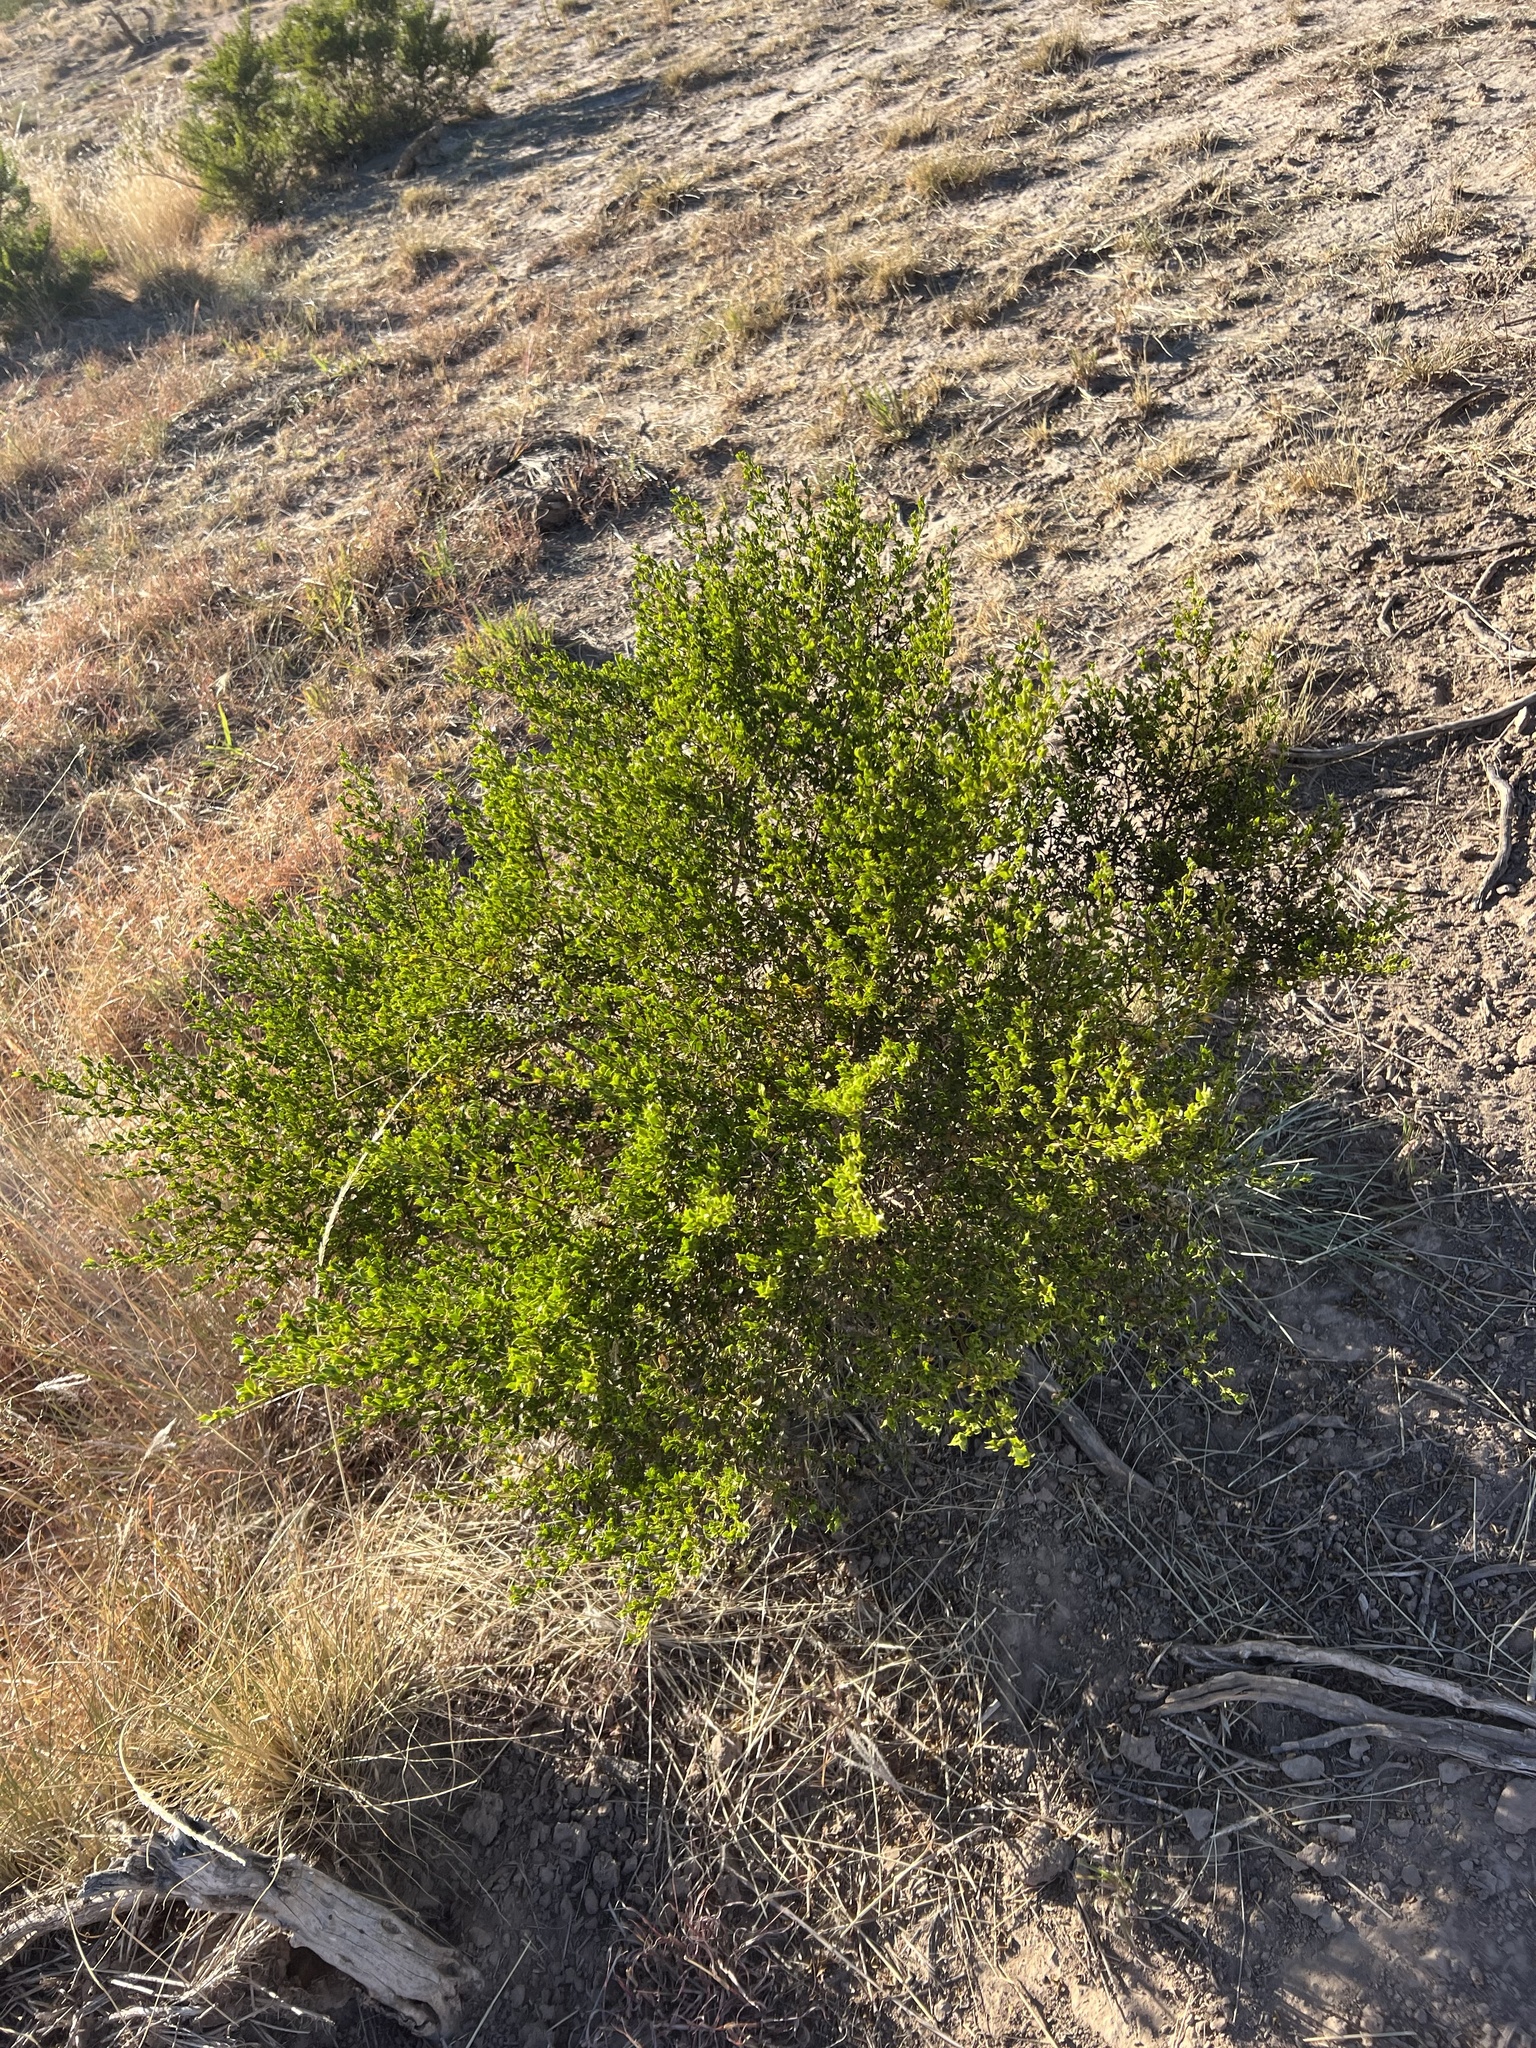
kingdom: Plantae
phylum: Tracheophyta
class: Magnoliopsida
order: Zygophyllales
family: Zygophyllaceae
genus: Larrea
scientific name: Larrea tridentata
